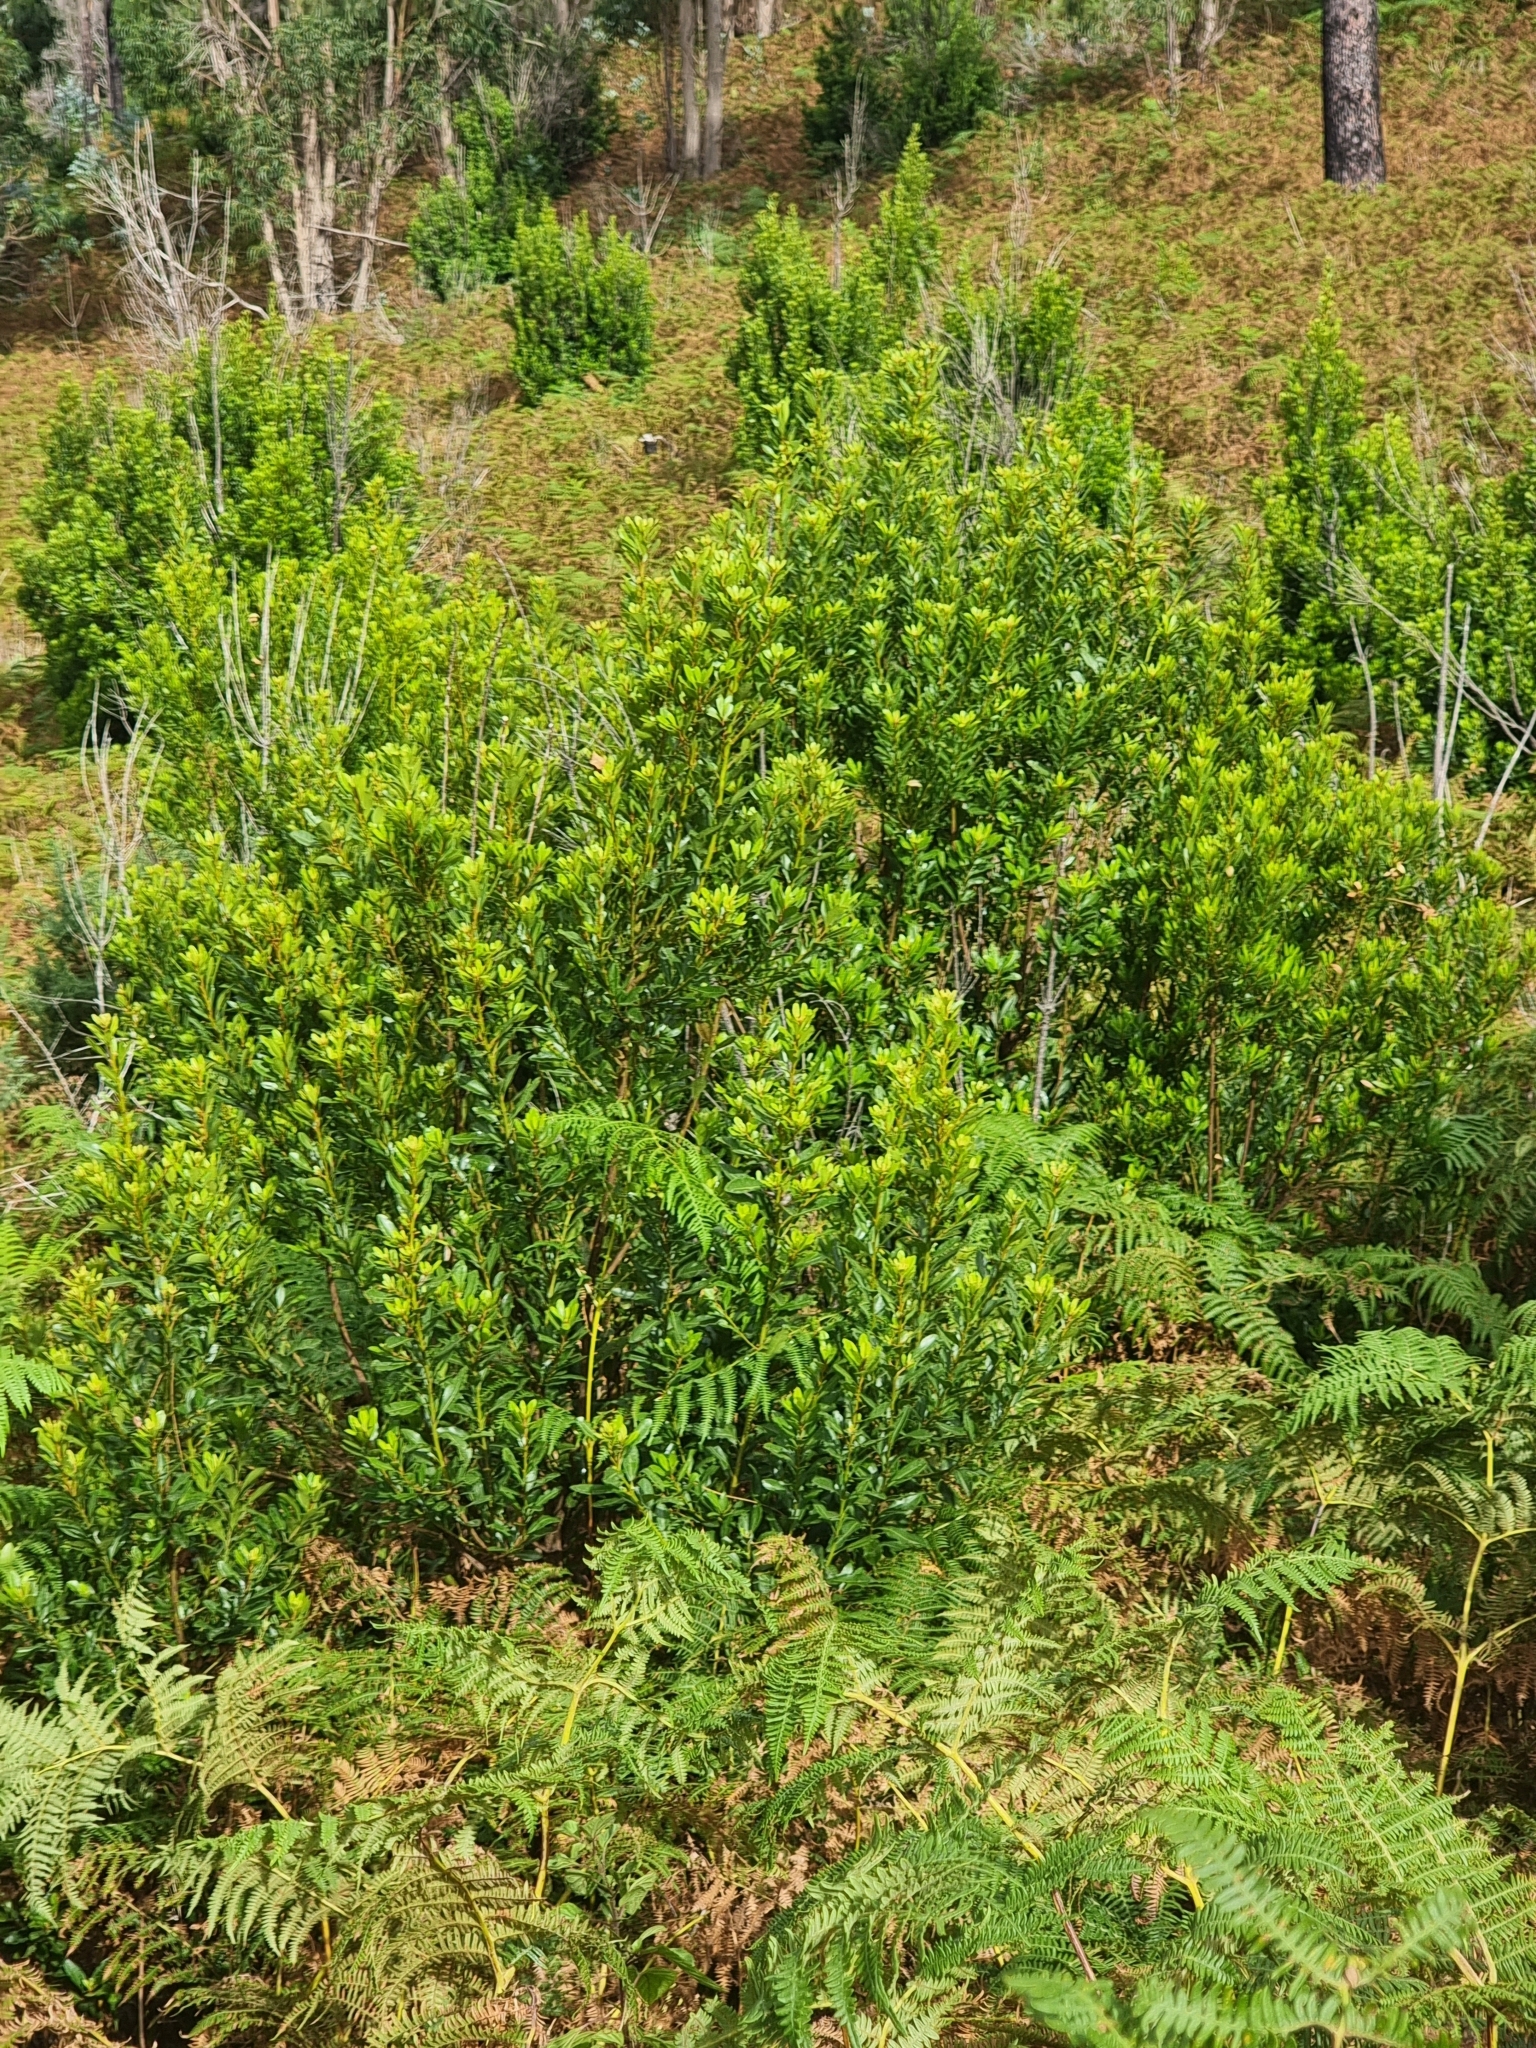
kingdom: Plantae
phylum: Tracheophyta
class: Magnoliopsida
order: Fagales
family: Myricaceae
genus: Morella
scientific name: Morella faya
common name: Firetree
